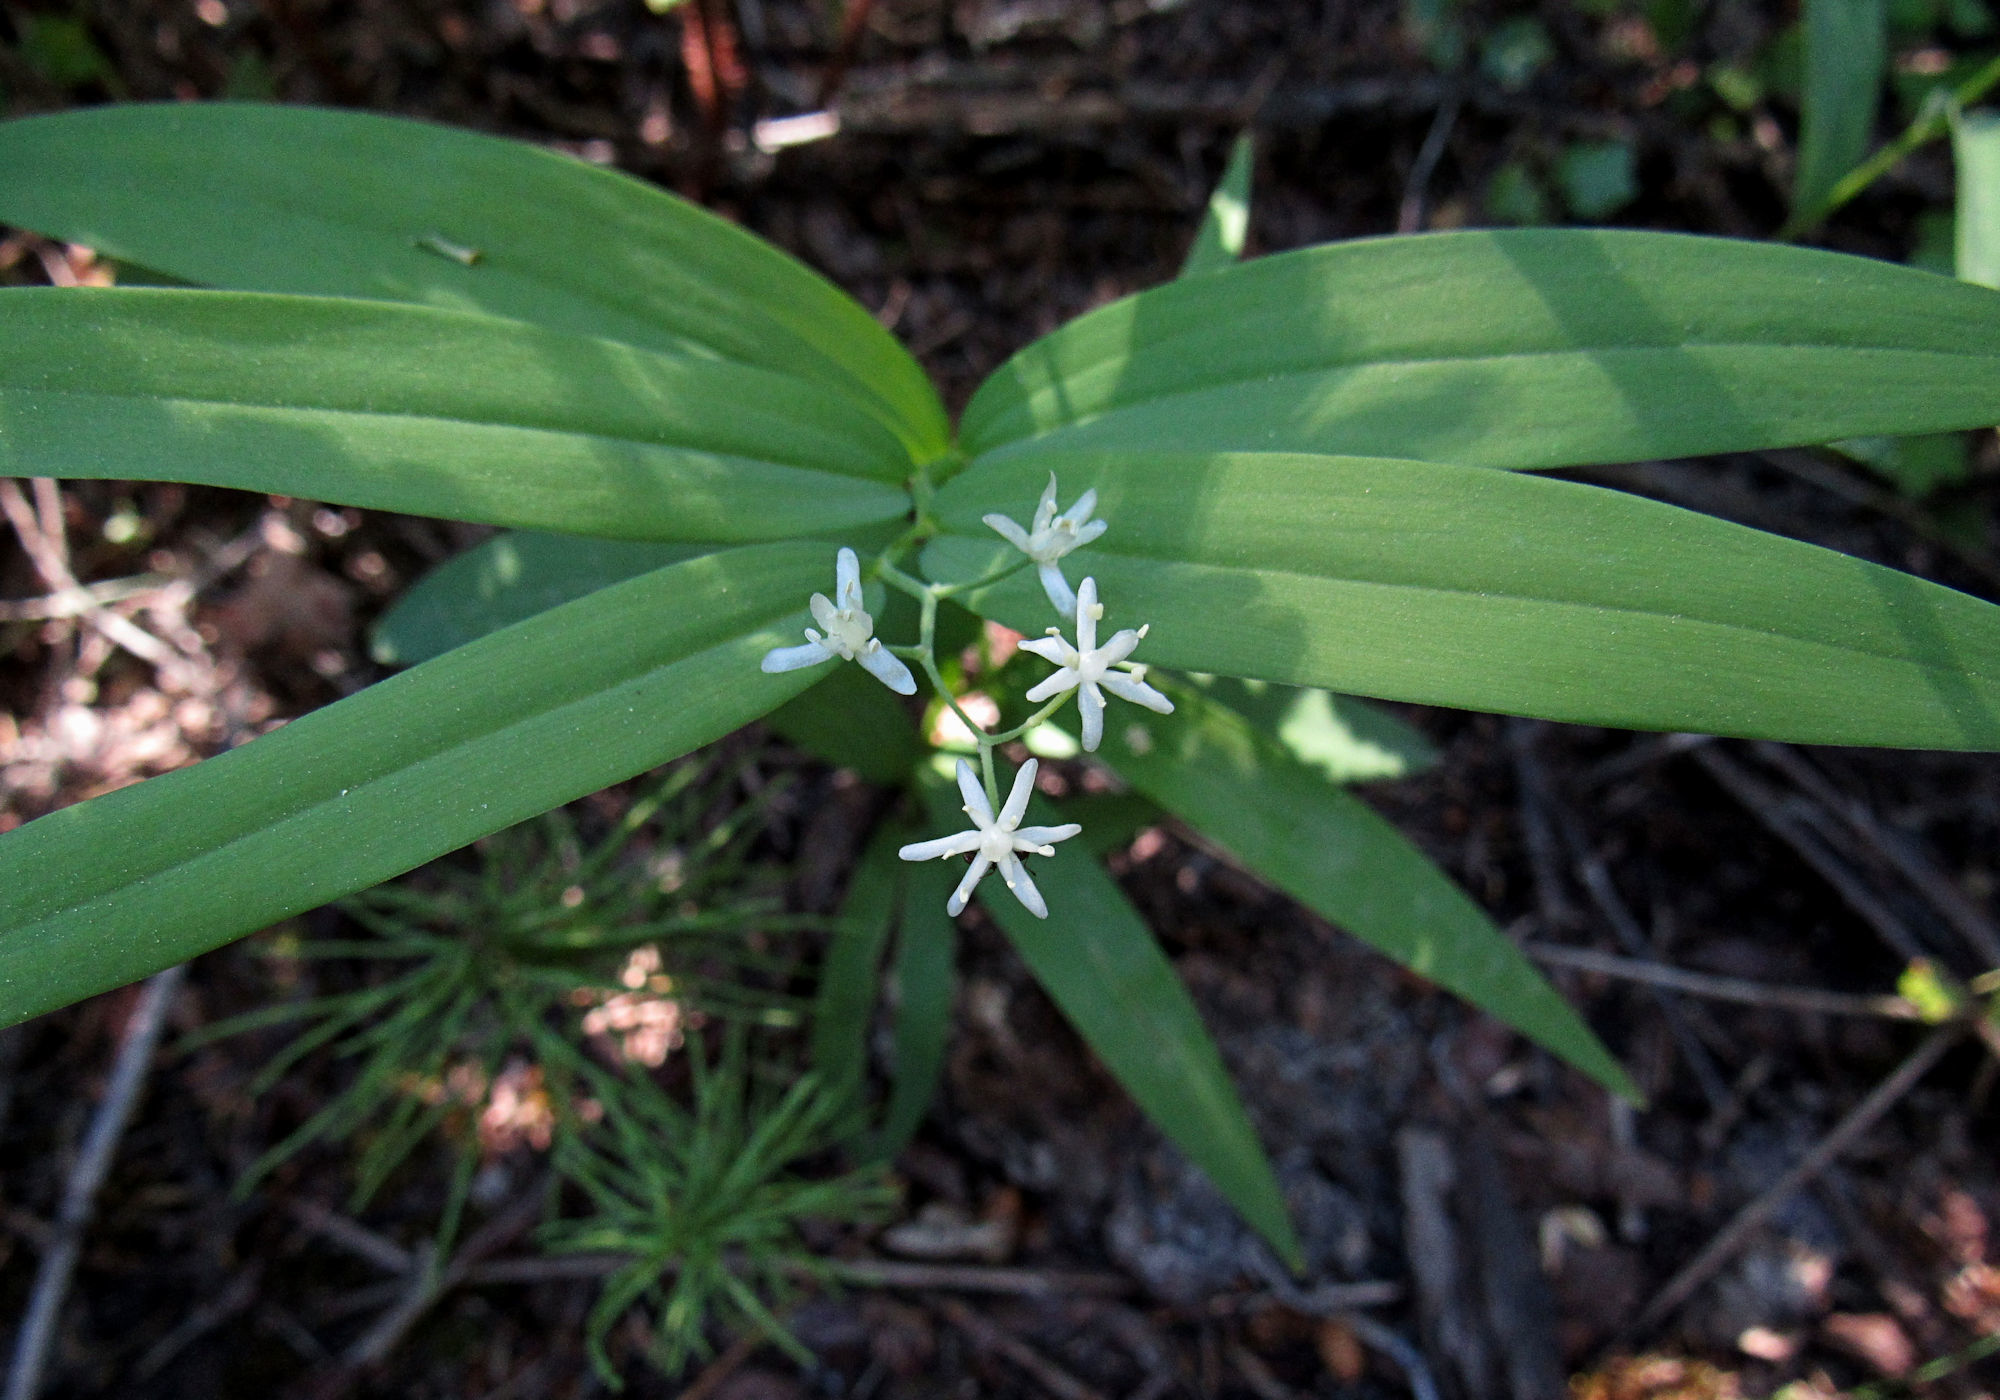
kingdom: Plantae
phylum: Tracheophyta
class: Liliopsida
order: Asparagales
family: Asparagaceae
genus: Maianthemum
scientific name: Maianthemum stellatum
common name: Little false solomon's seal
